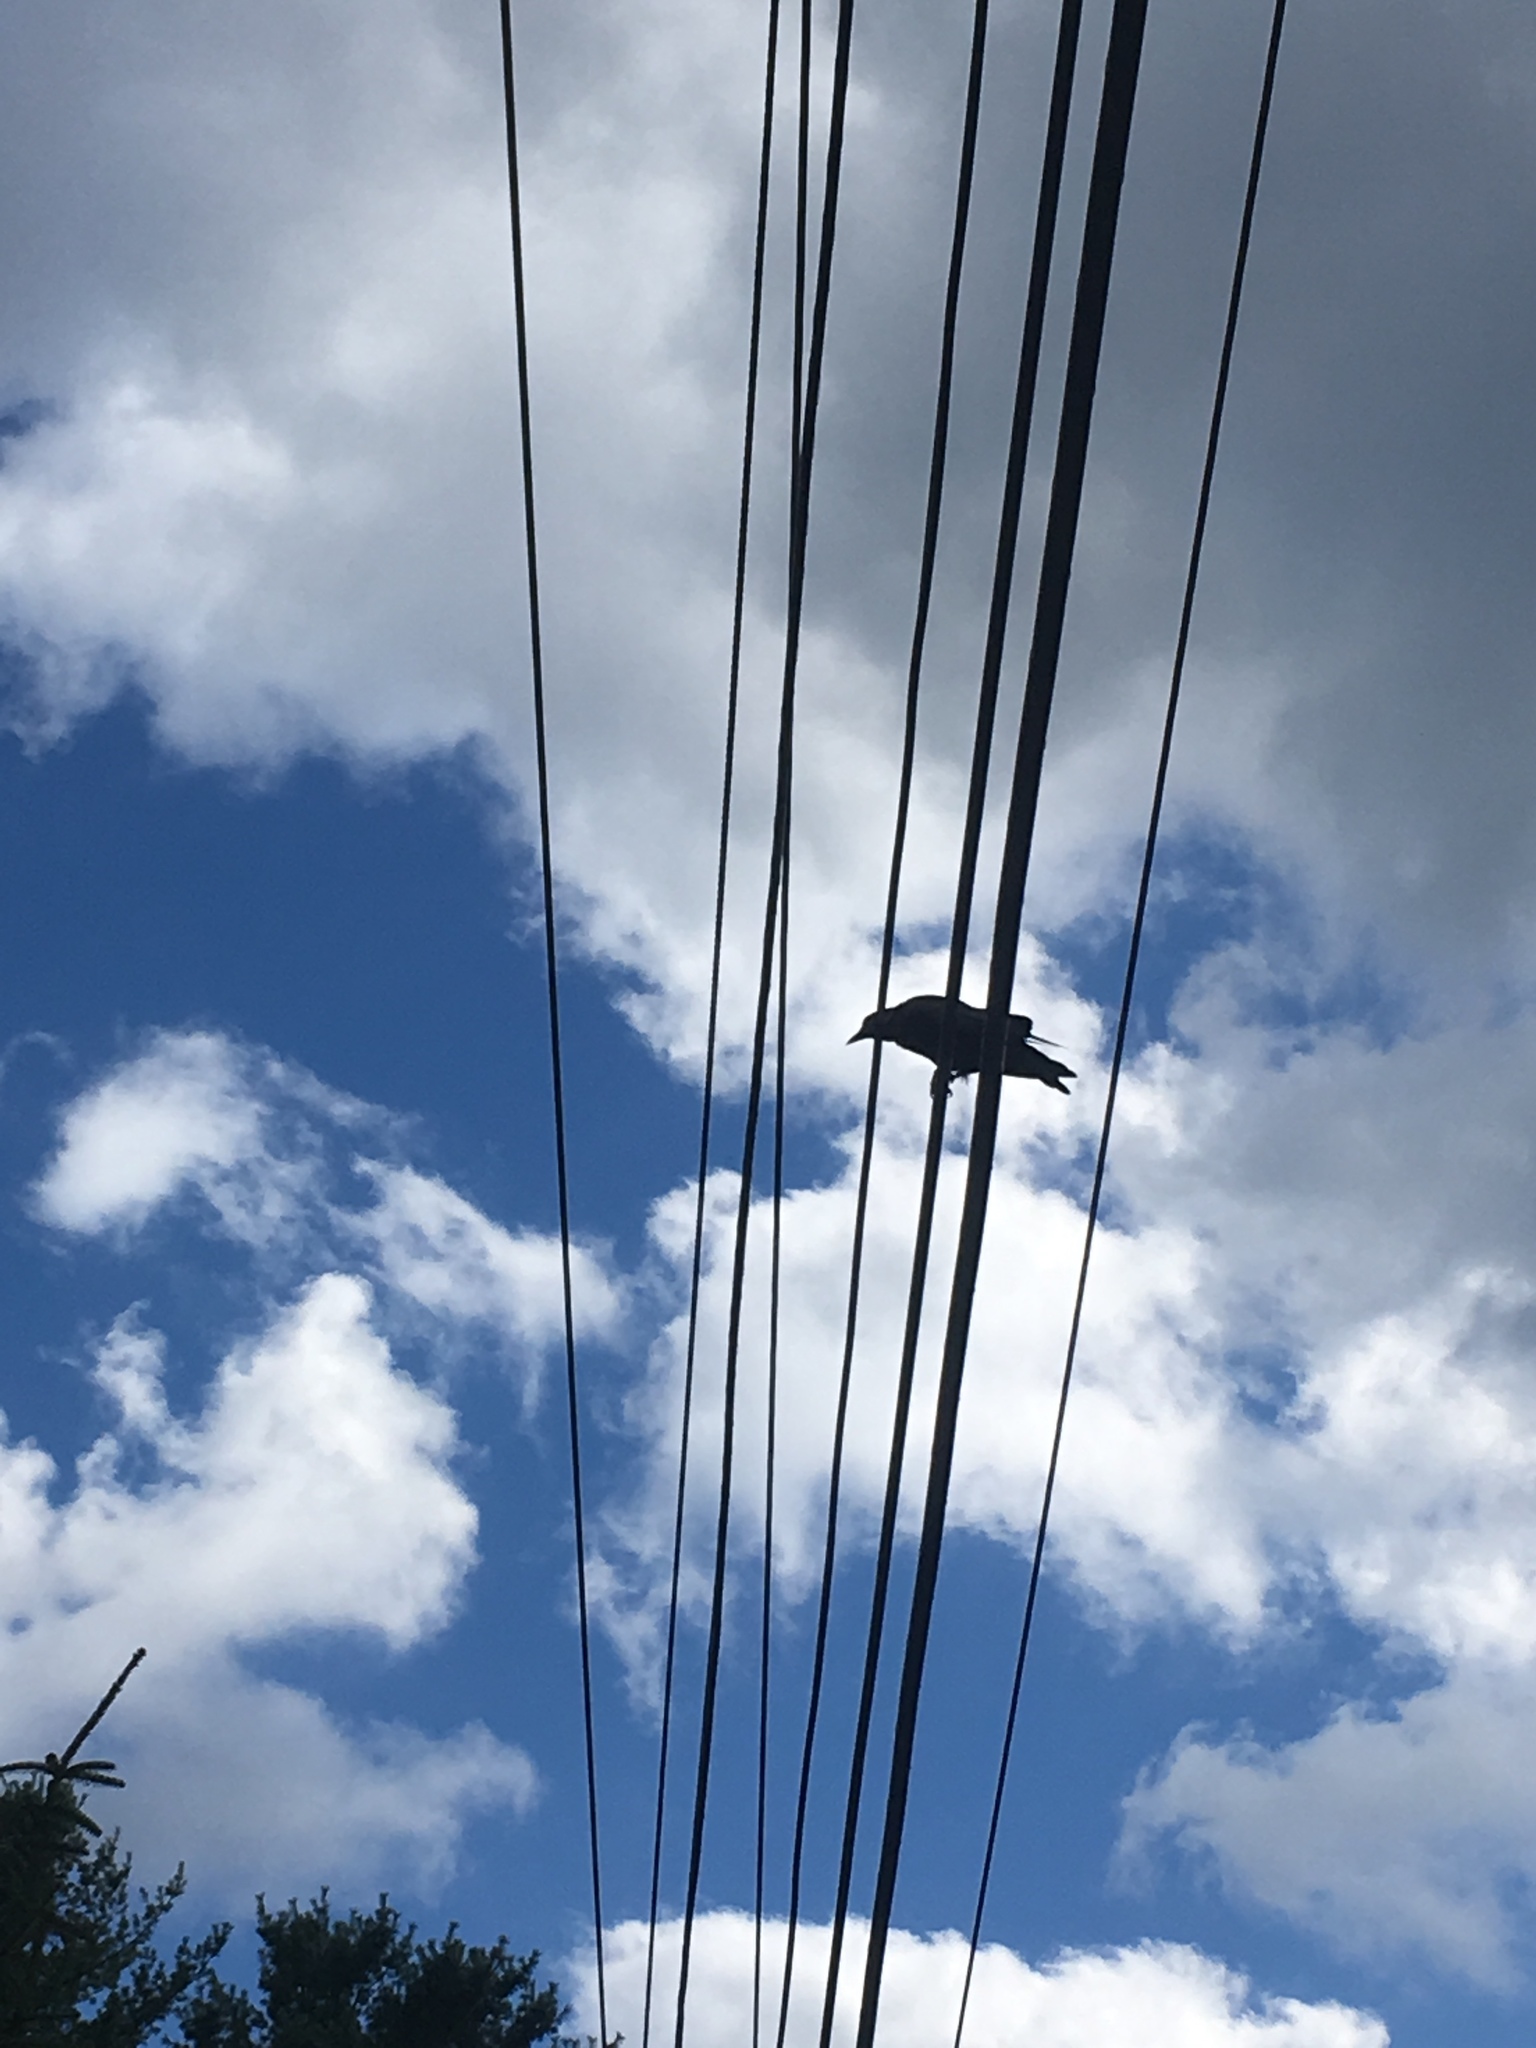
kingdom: Animalia
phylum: Chordata
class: Aves
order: Passeriformes
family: Corvidae
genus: Corvus
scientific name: Corvus brachyrhynchos
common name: American crow
